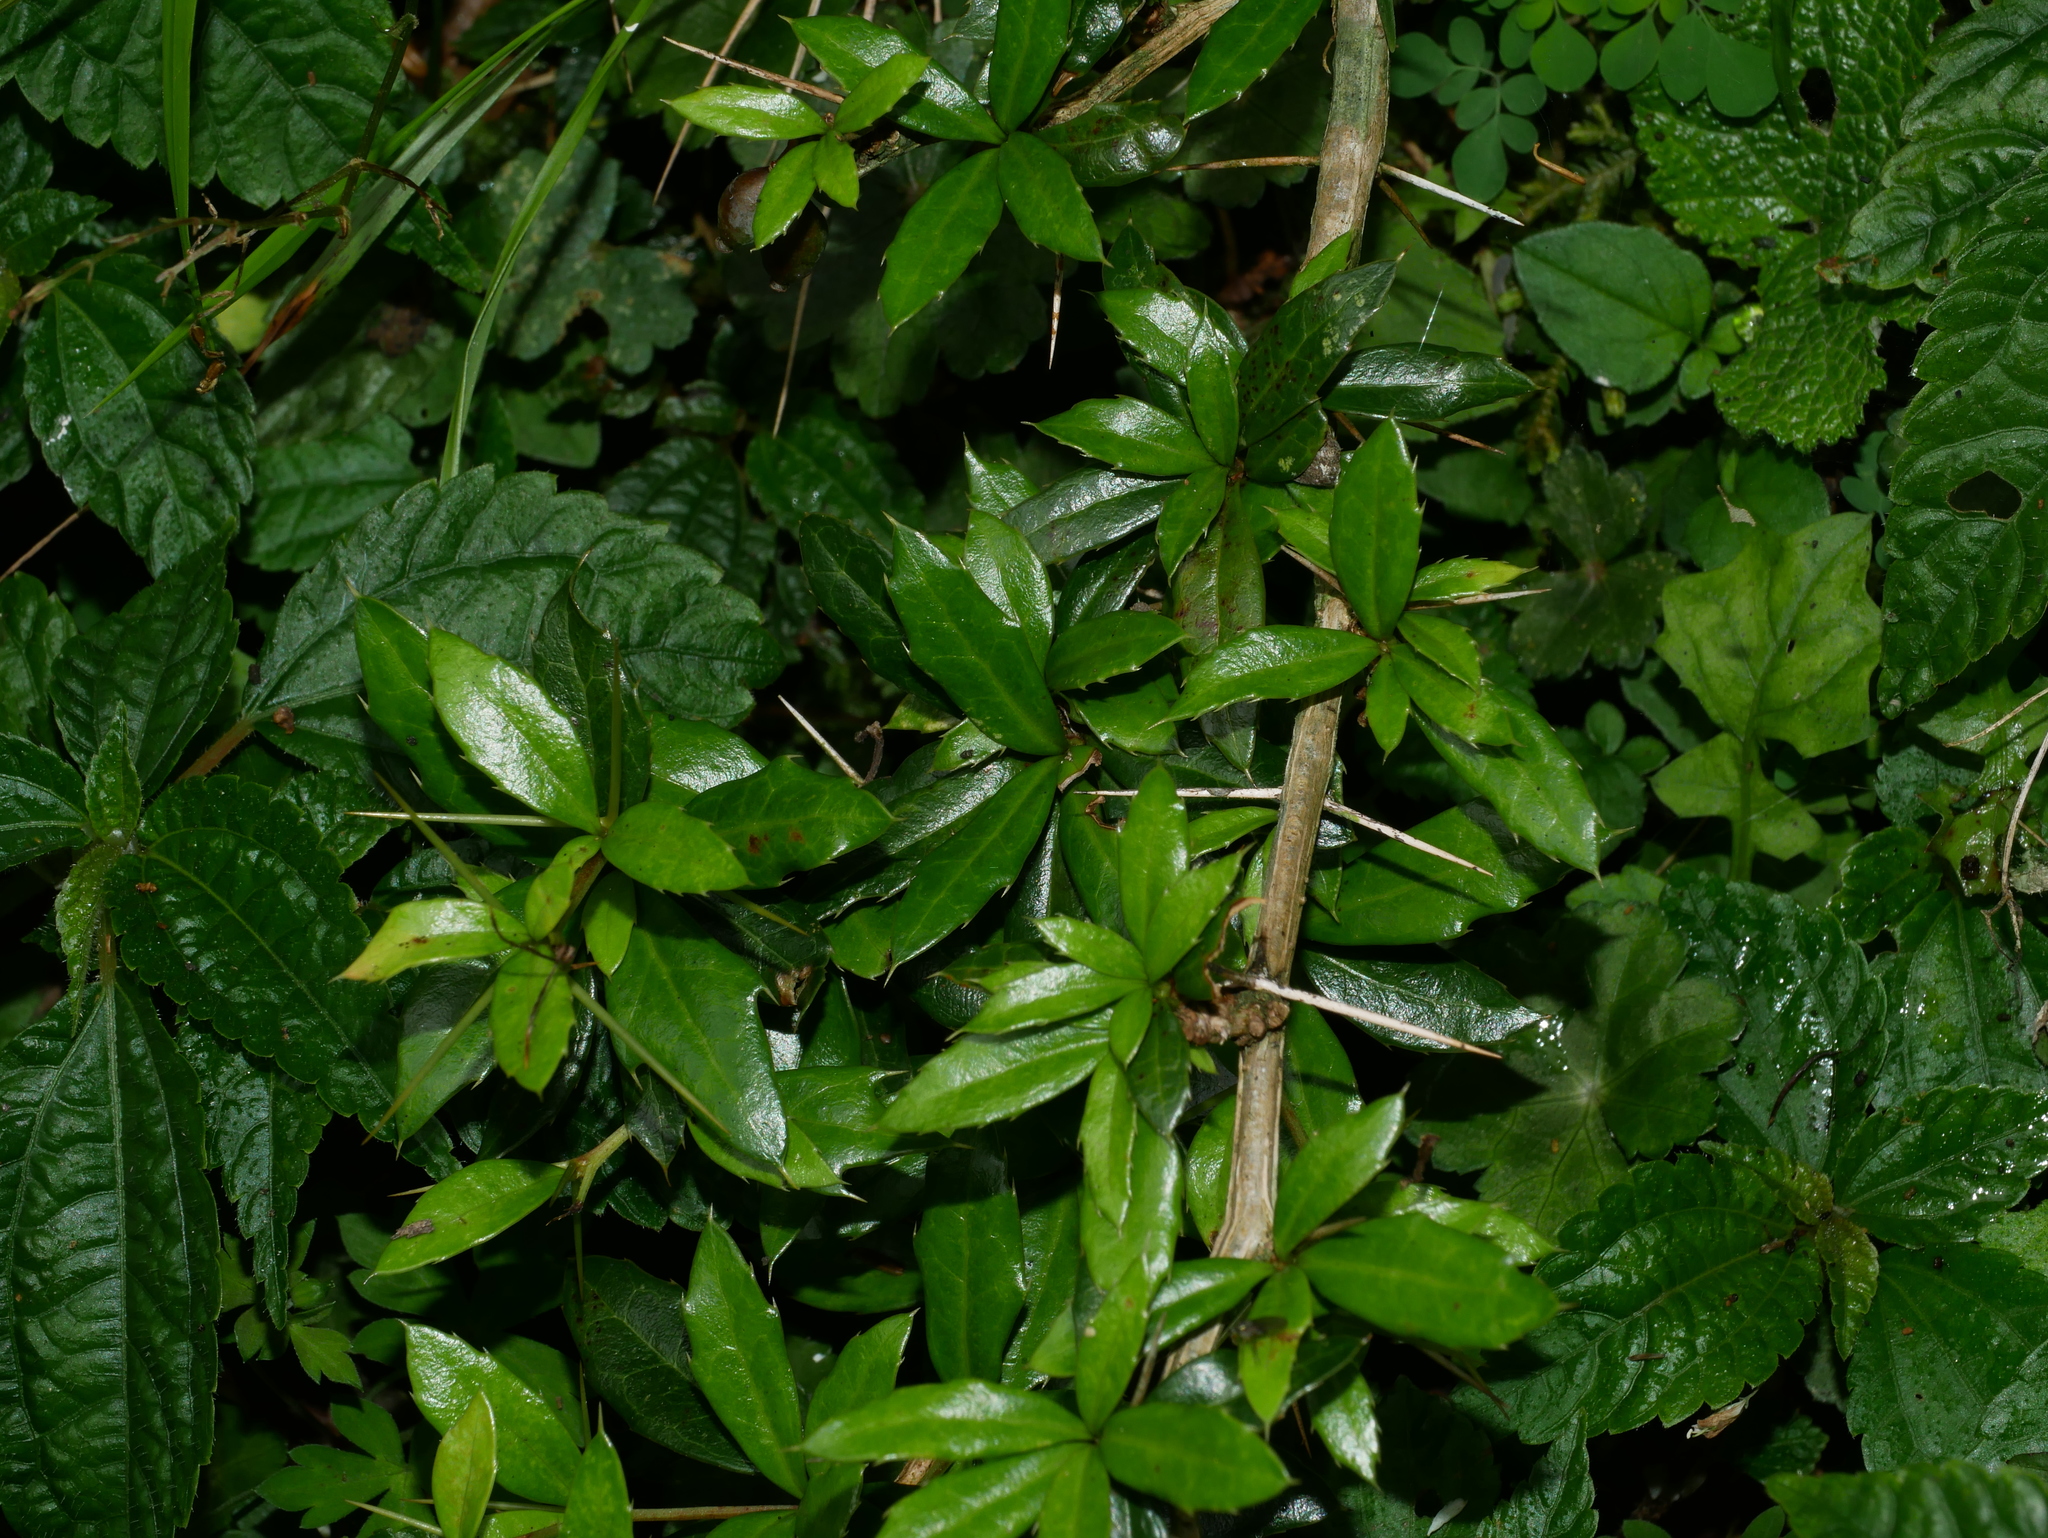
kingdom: Plantae
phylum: Tracheophyta
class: Magnoliopsida
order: Ranunculales
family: Berberidaceae
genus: Berberis
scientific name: Berberis kawakamii
